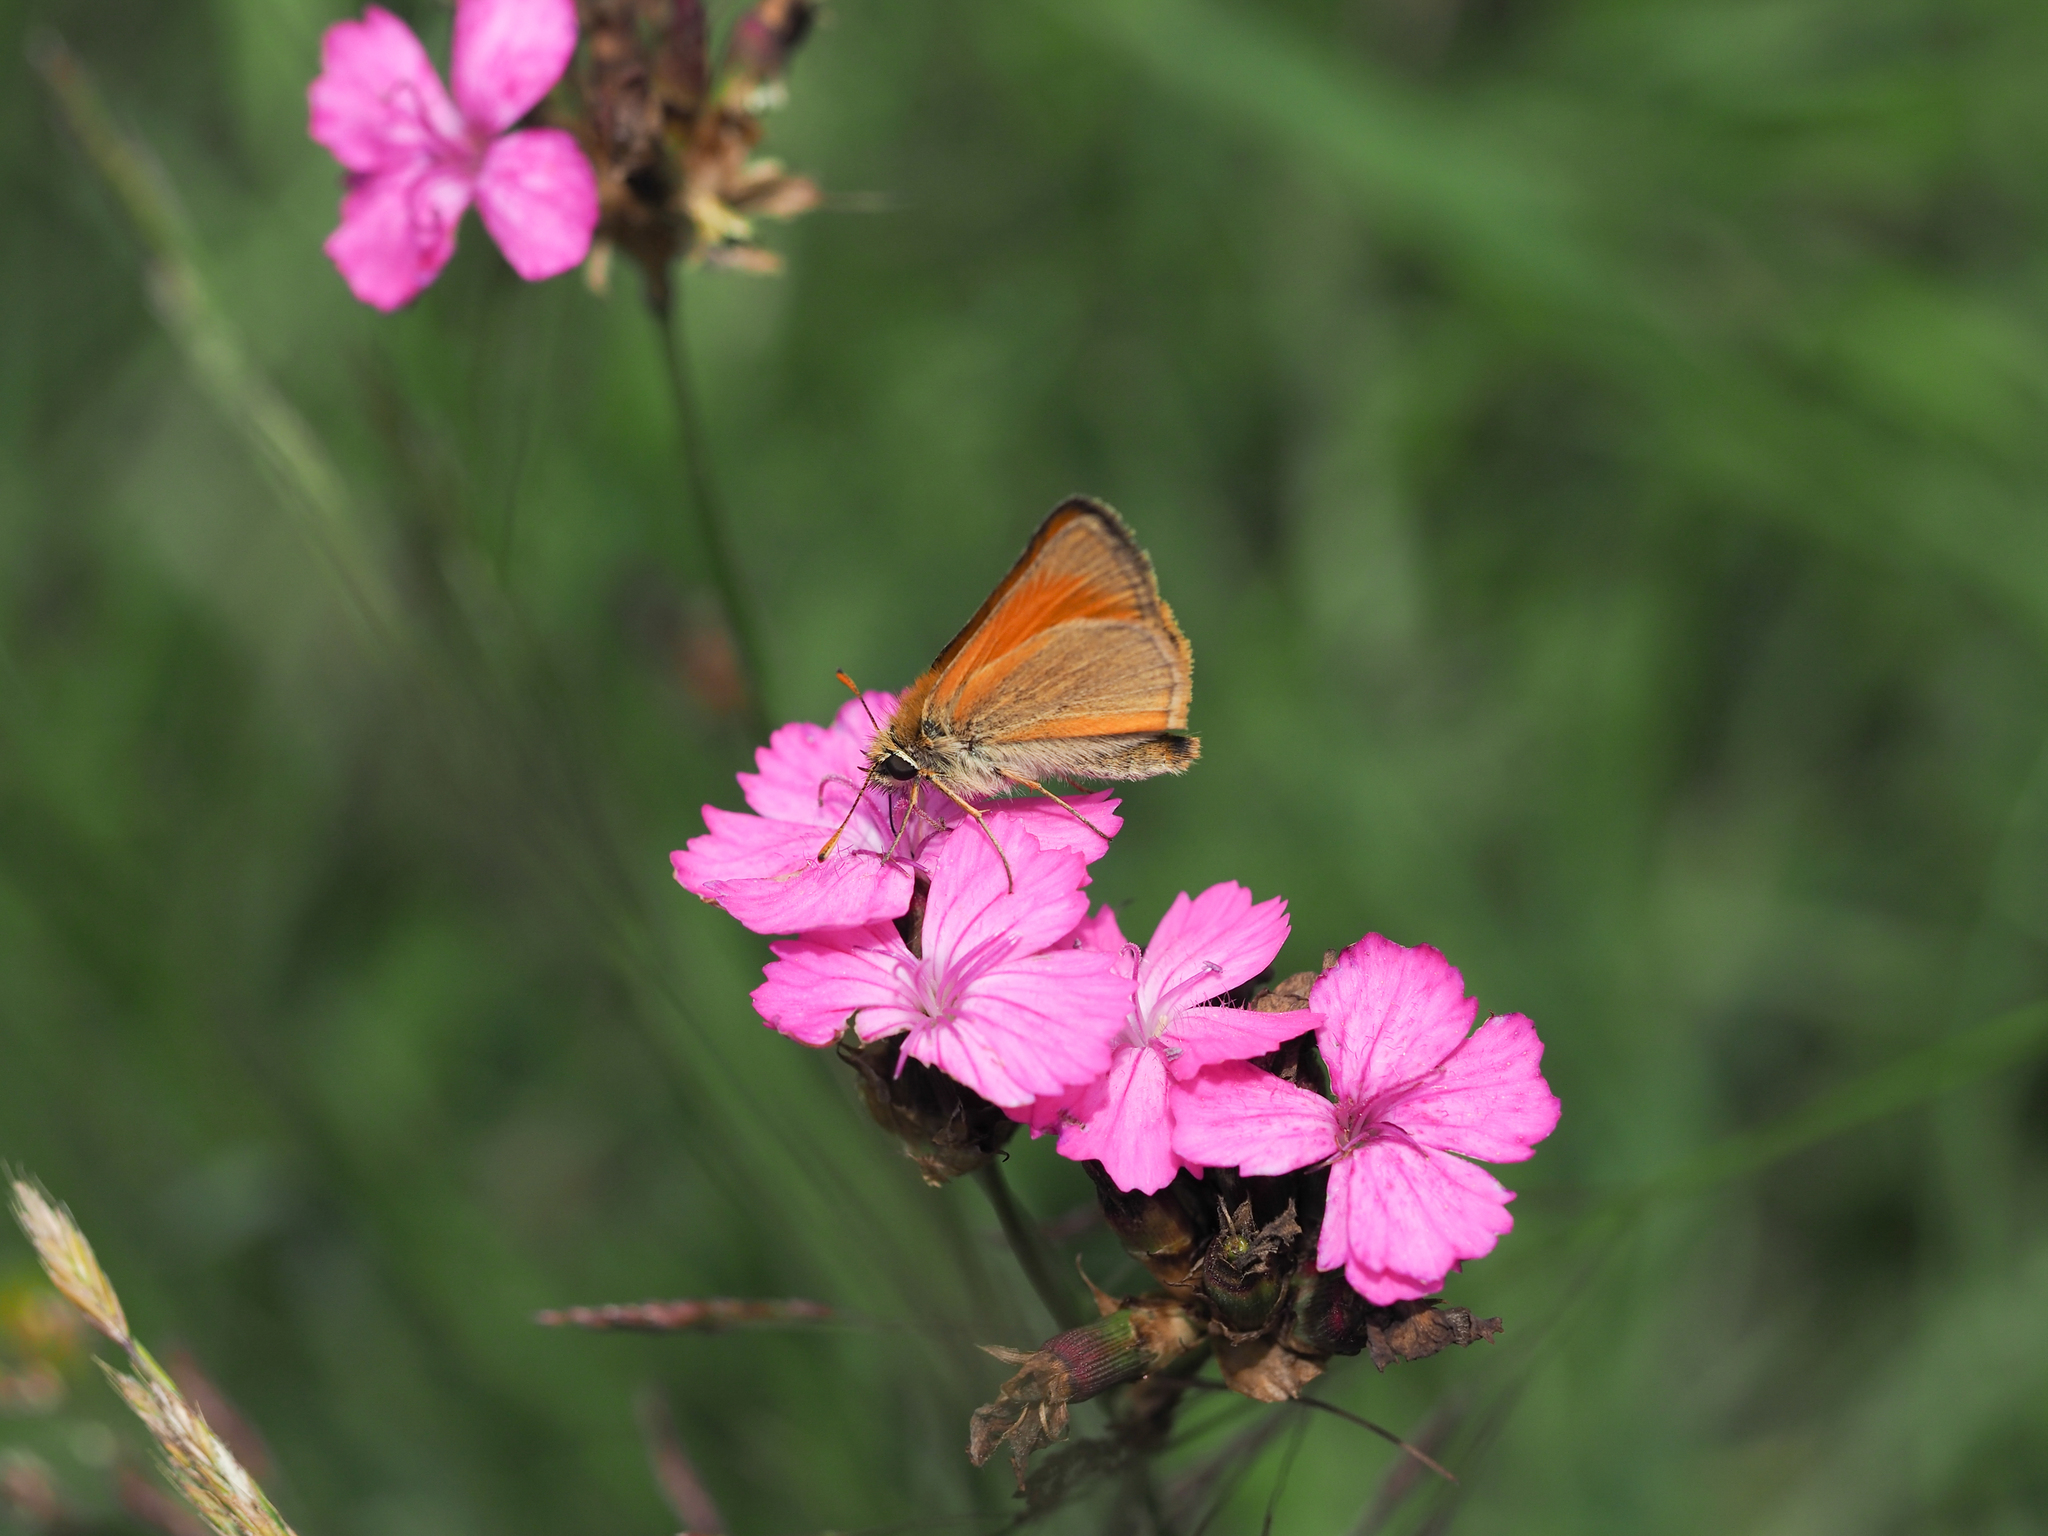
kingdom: Plantae
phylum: Tracheophyta
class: Magnoliopsida
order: Caryophyllales
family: Caryophyllaceae
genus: Dianthus
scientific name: Dianthus carthusianorum
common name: Carthusian pink
